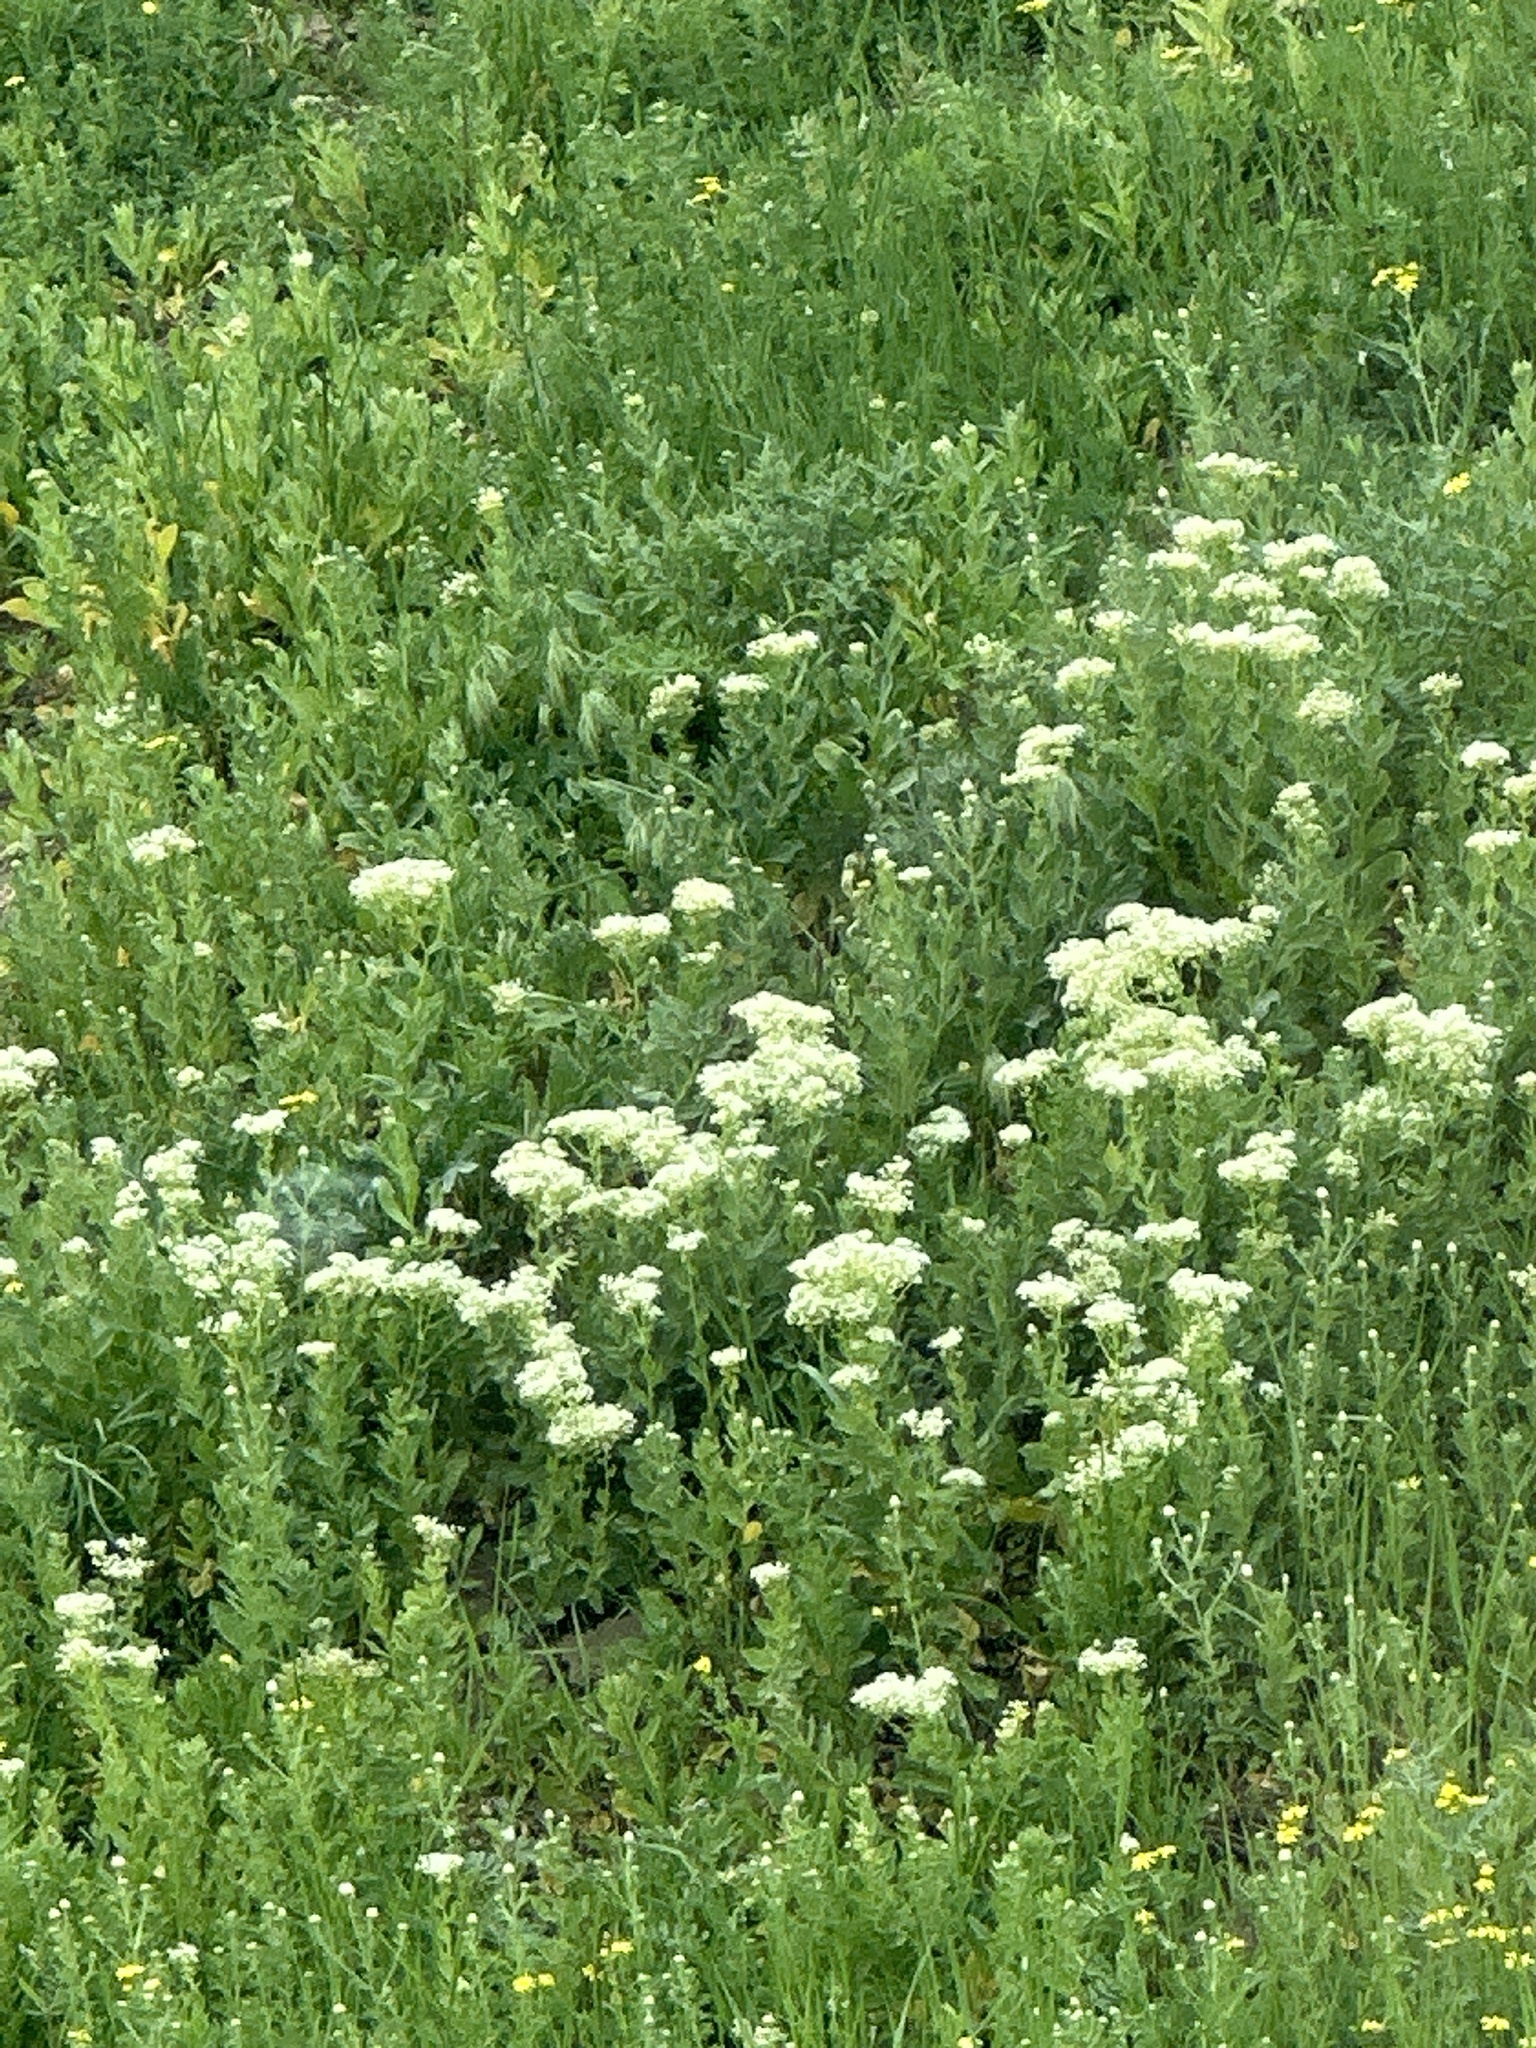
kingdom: Plantae
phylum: Tracheophyta
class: Magnoliopsida
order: Brassicales
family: Brassicaceae
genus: Lepidium
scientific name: Lepidium draba
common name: Hoary cress
